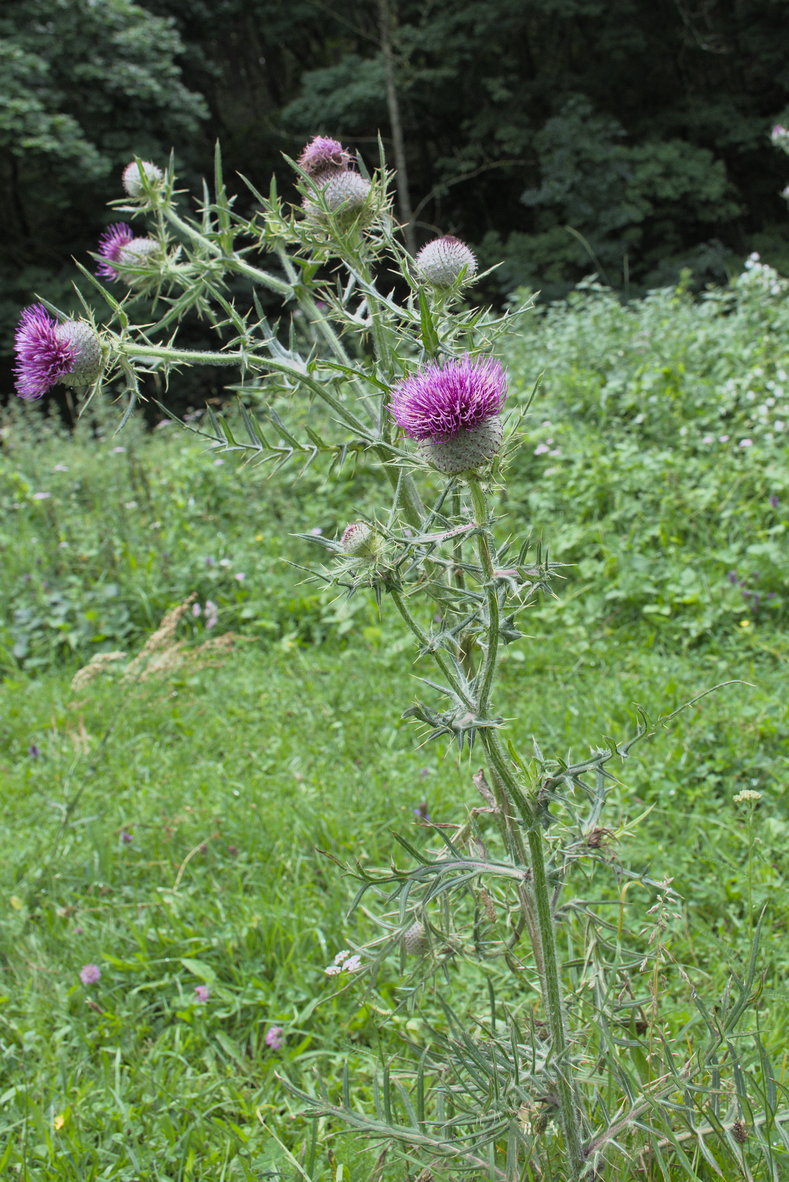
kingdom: Plantae
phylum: Tracheophyta
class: Magnoliopsida
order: Asterales
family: Asteraceae
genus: Lophiolepis
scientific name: Lophiolepis eriophora
